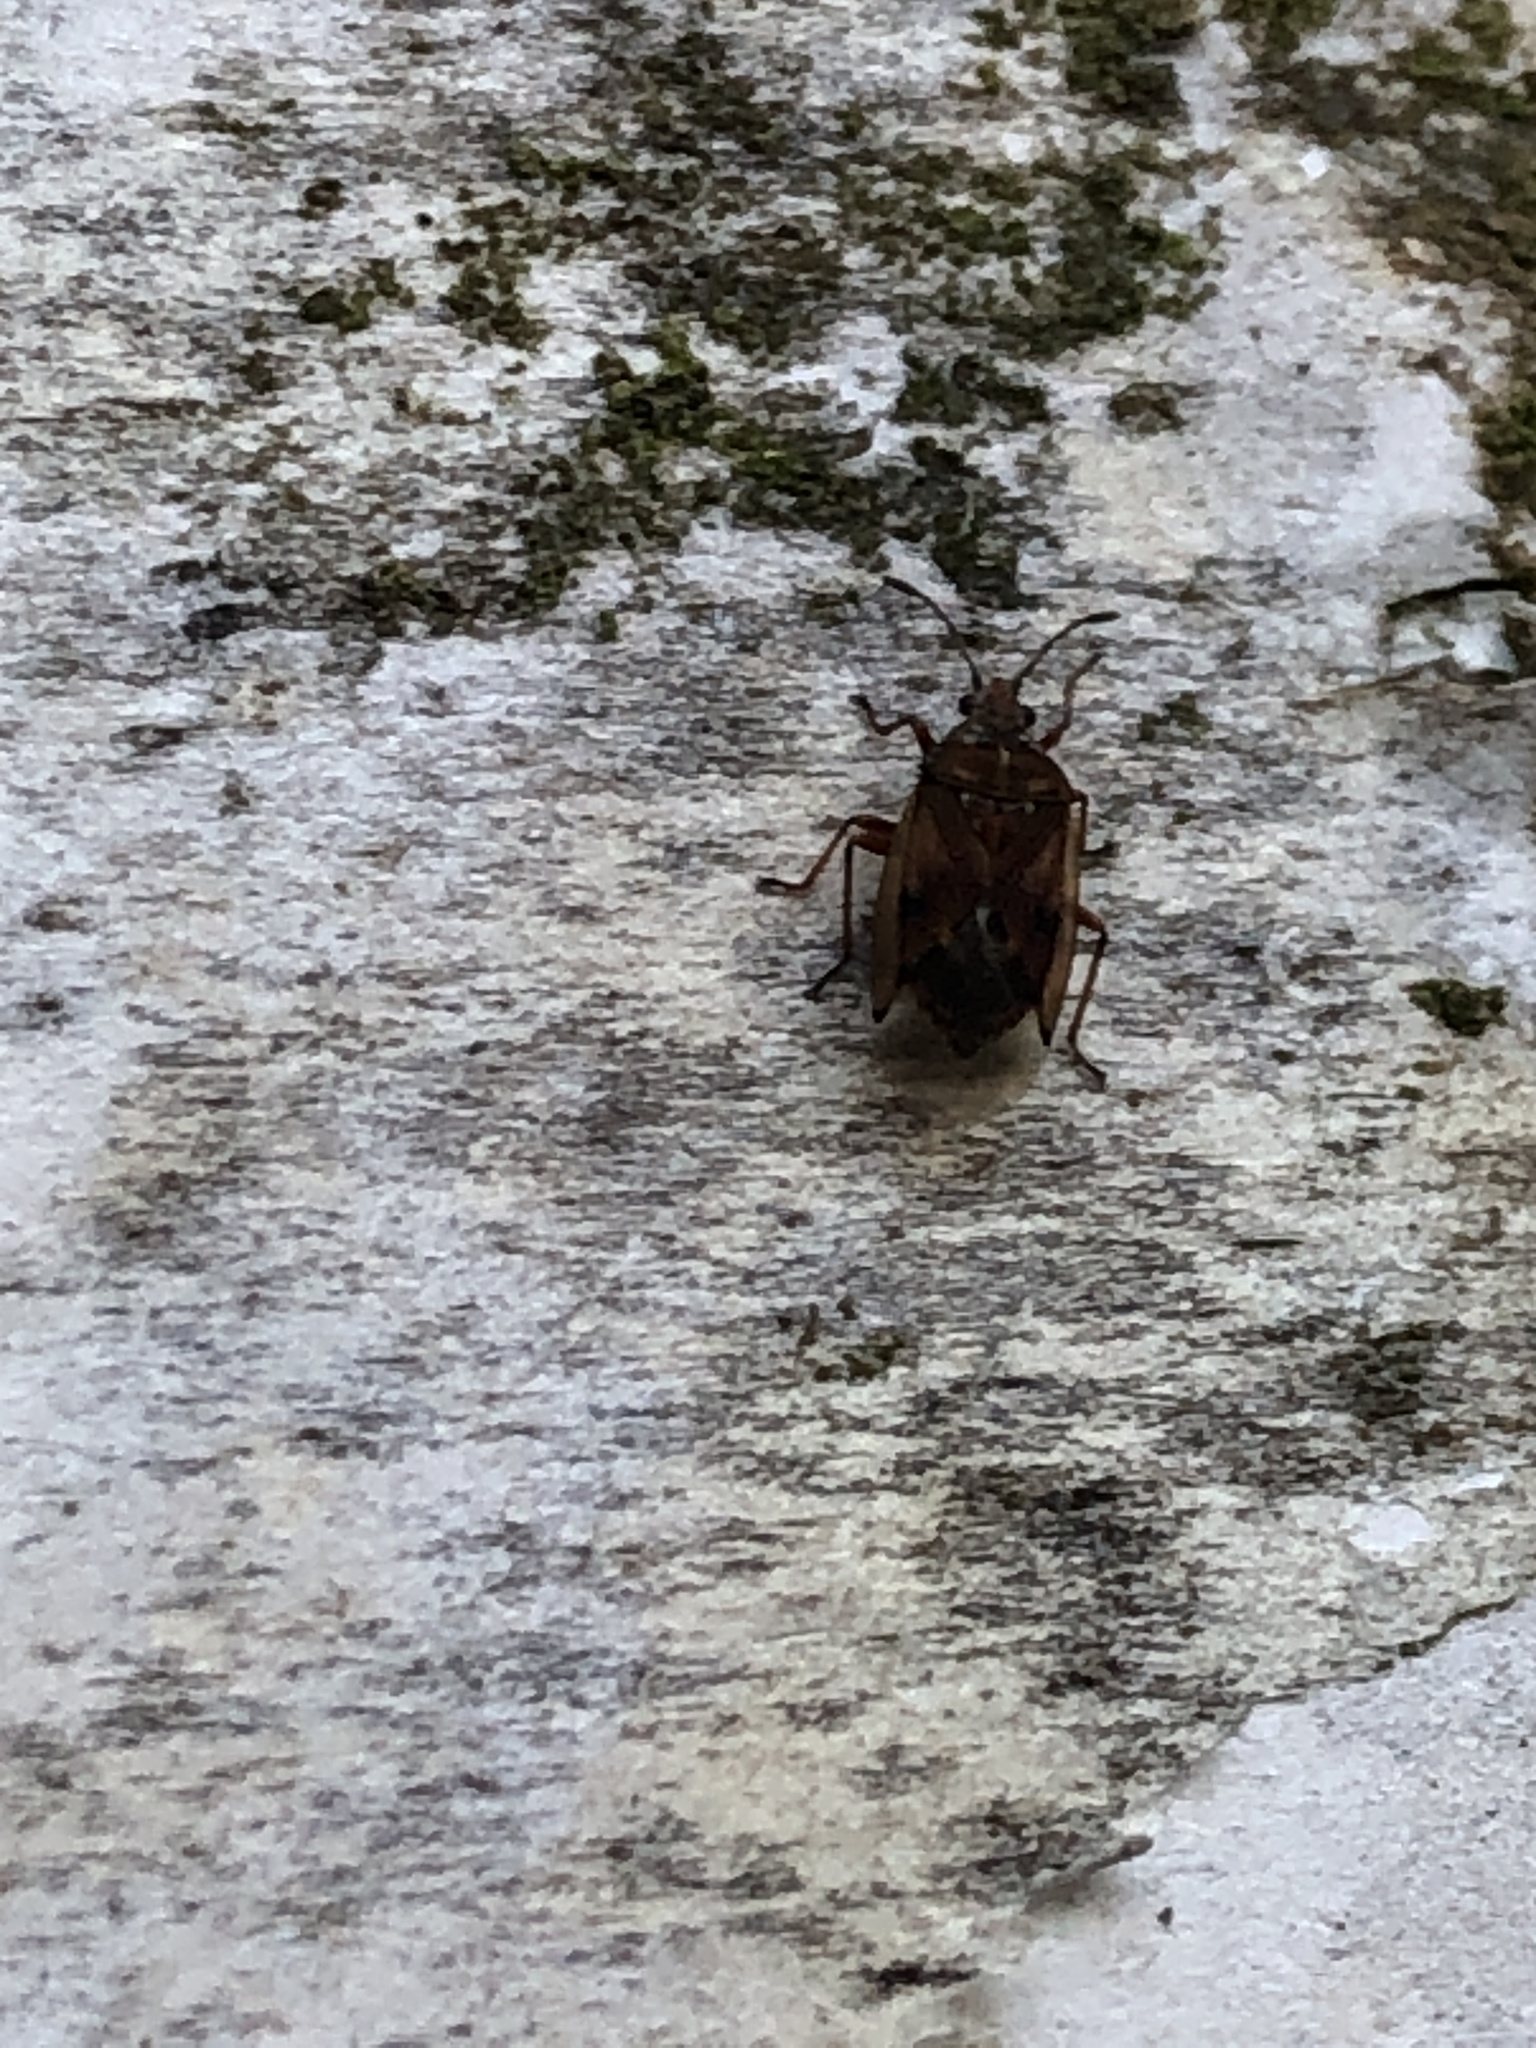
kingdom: Animalia
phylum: Arthropoda
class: Insecta
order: Hemiptera
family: Lygaeidae
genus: Kleidocerys
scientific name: Kleidocerys resedae
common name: Birch catkin bug
